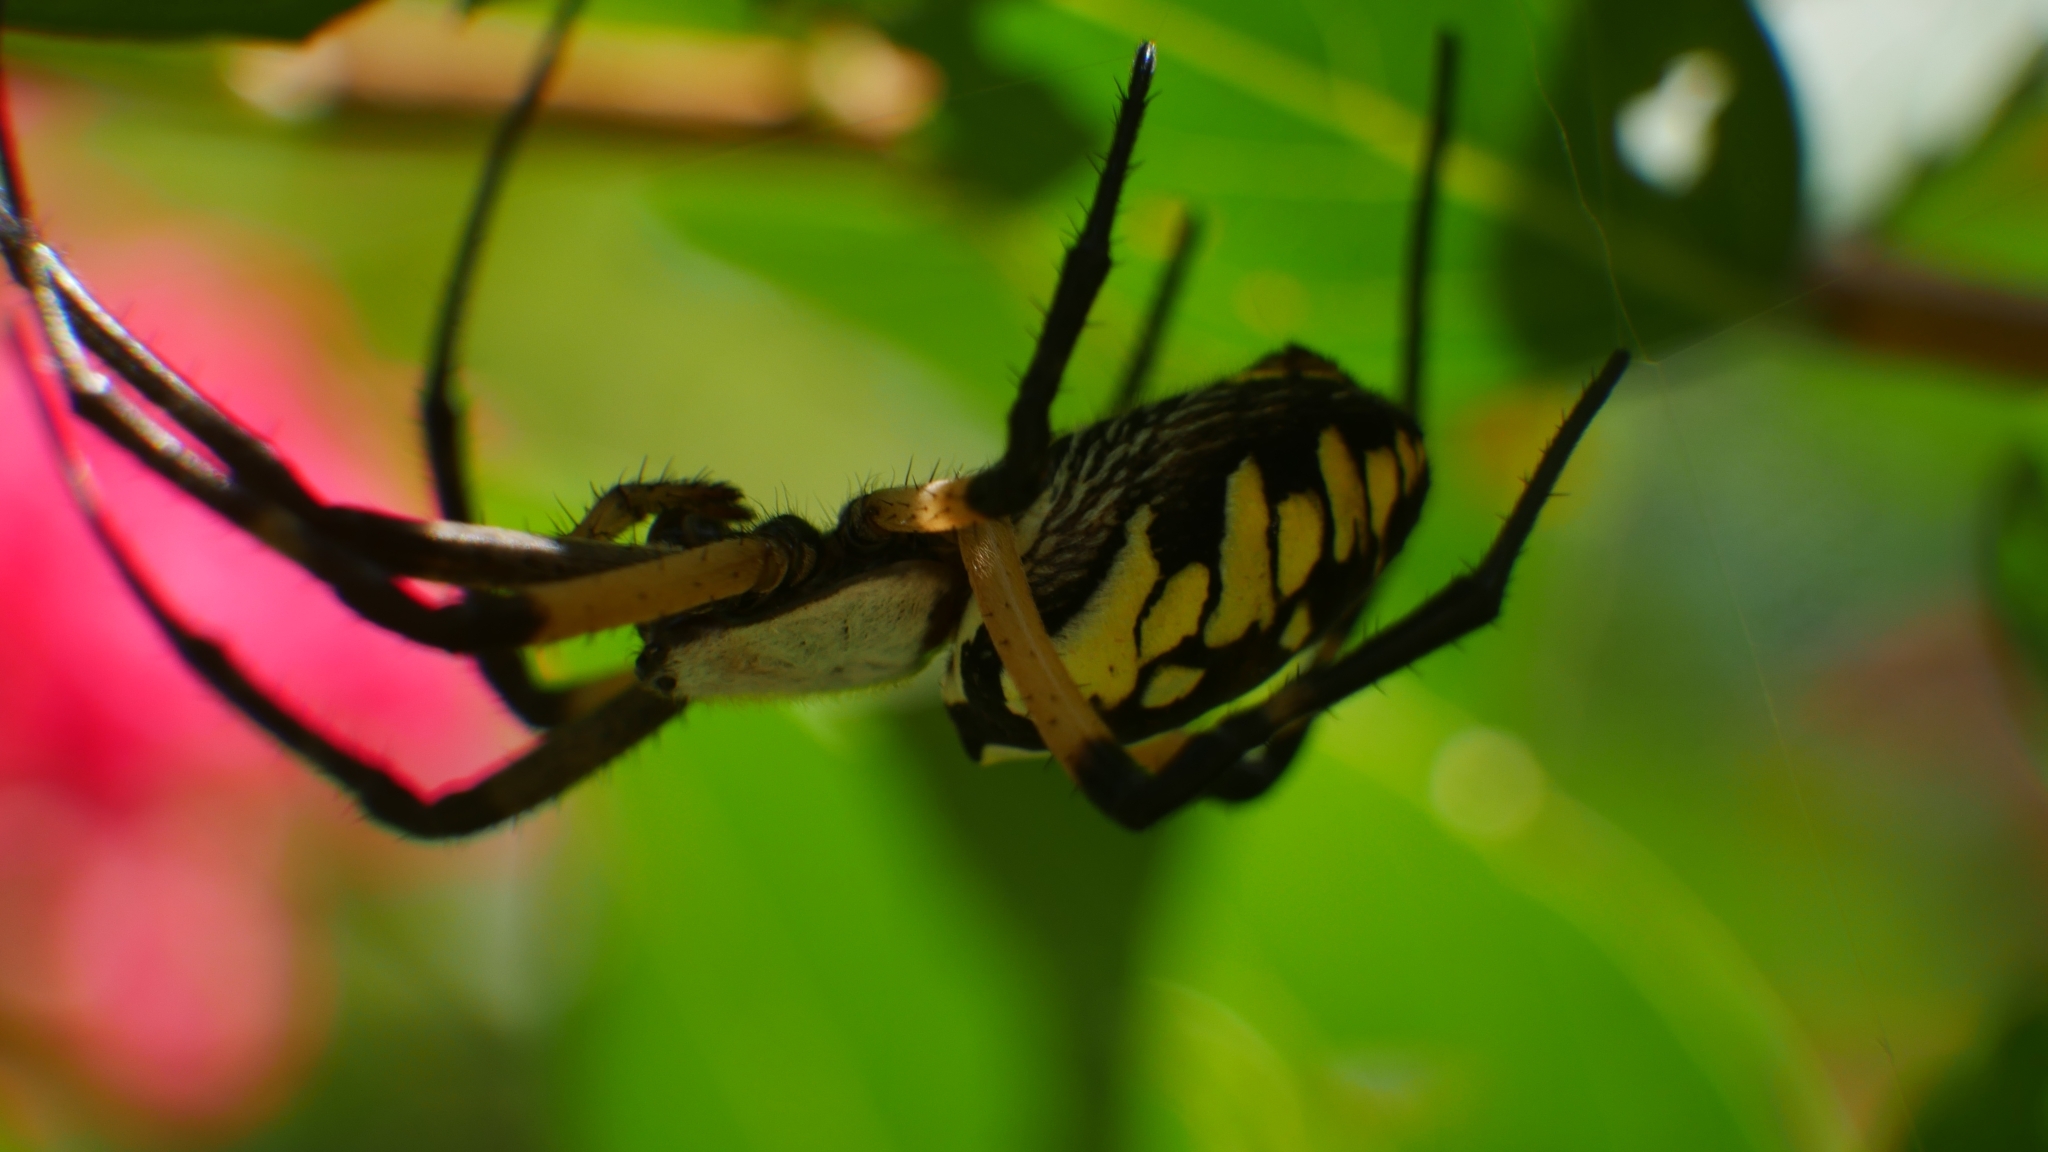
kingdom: Animalia
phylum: Arthropoda
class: Arachnida
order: Araneae
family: Araneidae
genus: Argiope
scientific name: Argiope aurantia
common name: Orb weavers
